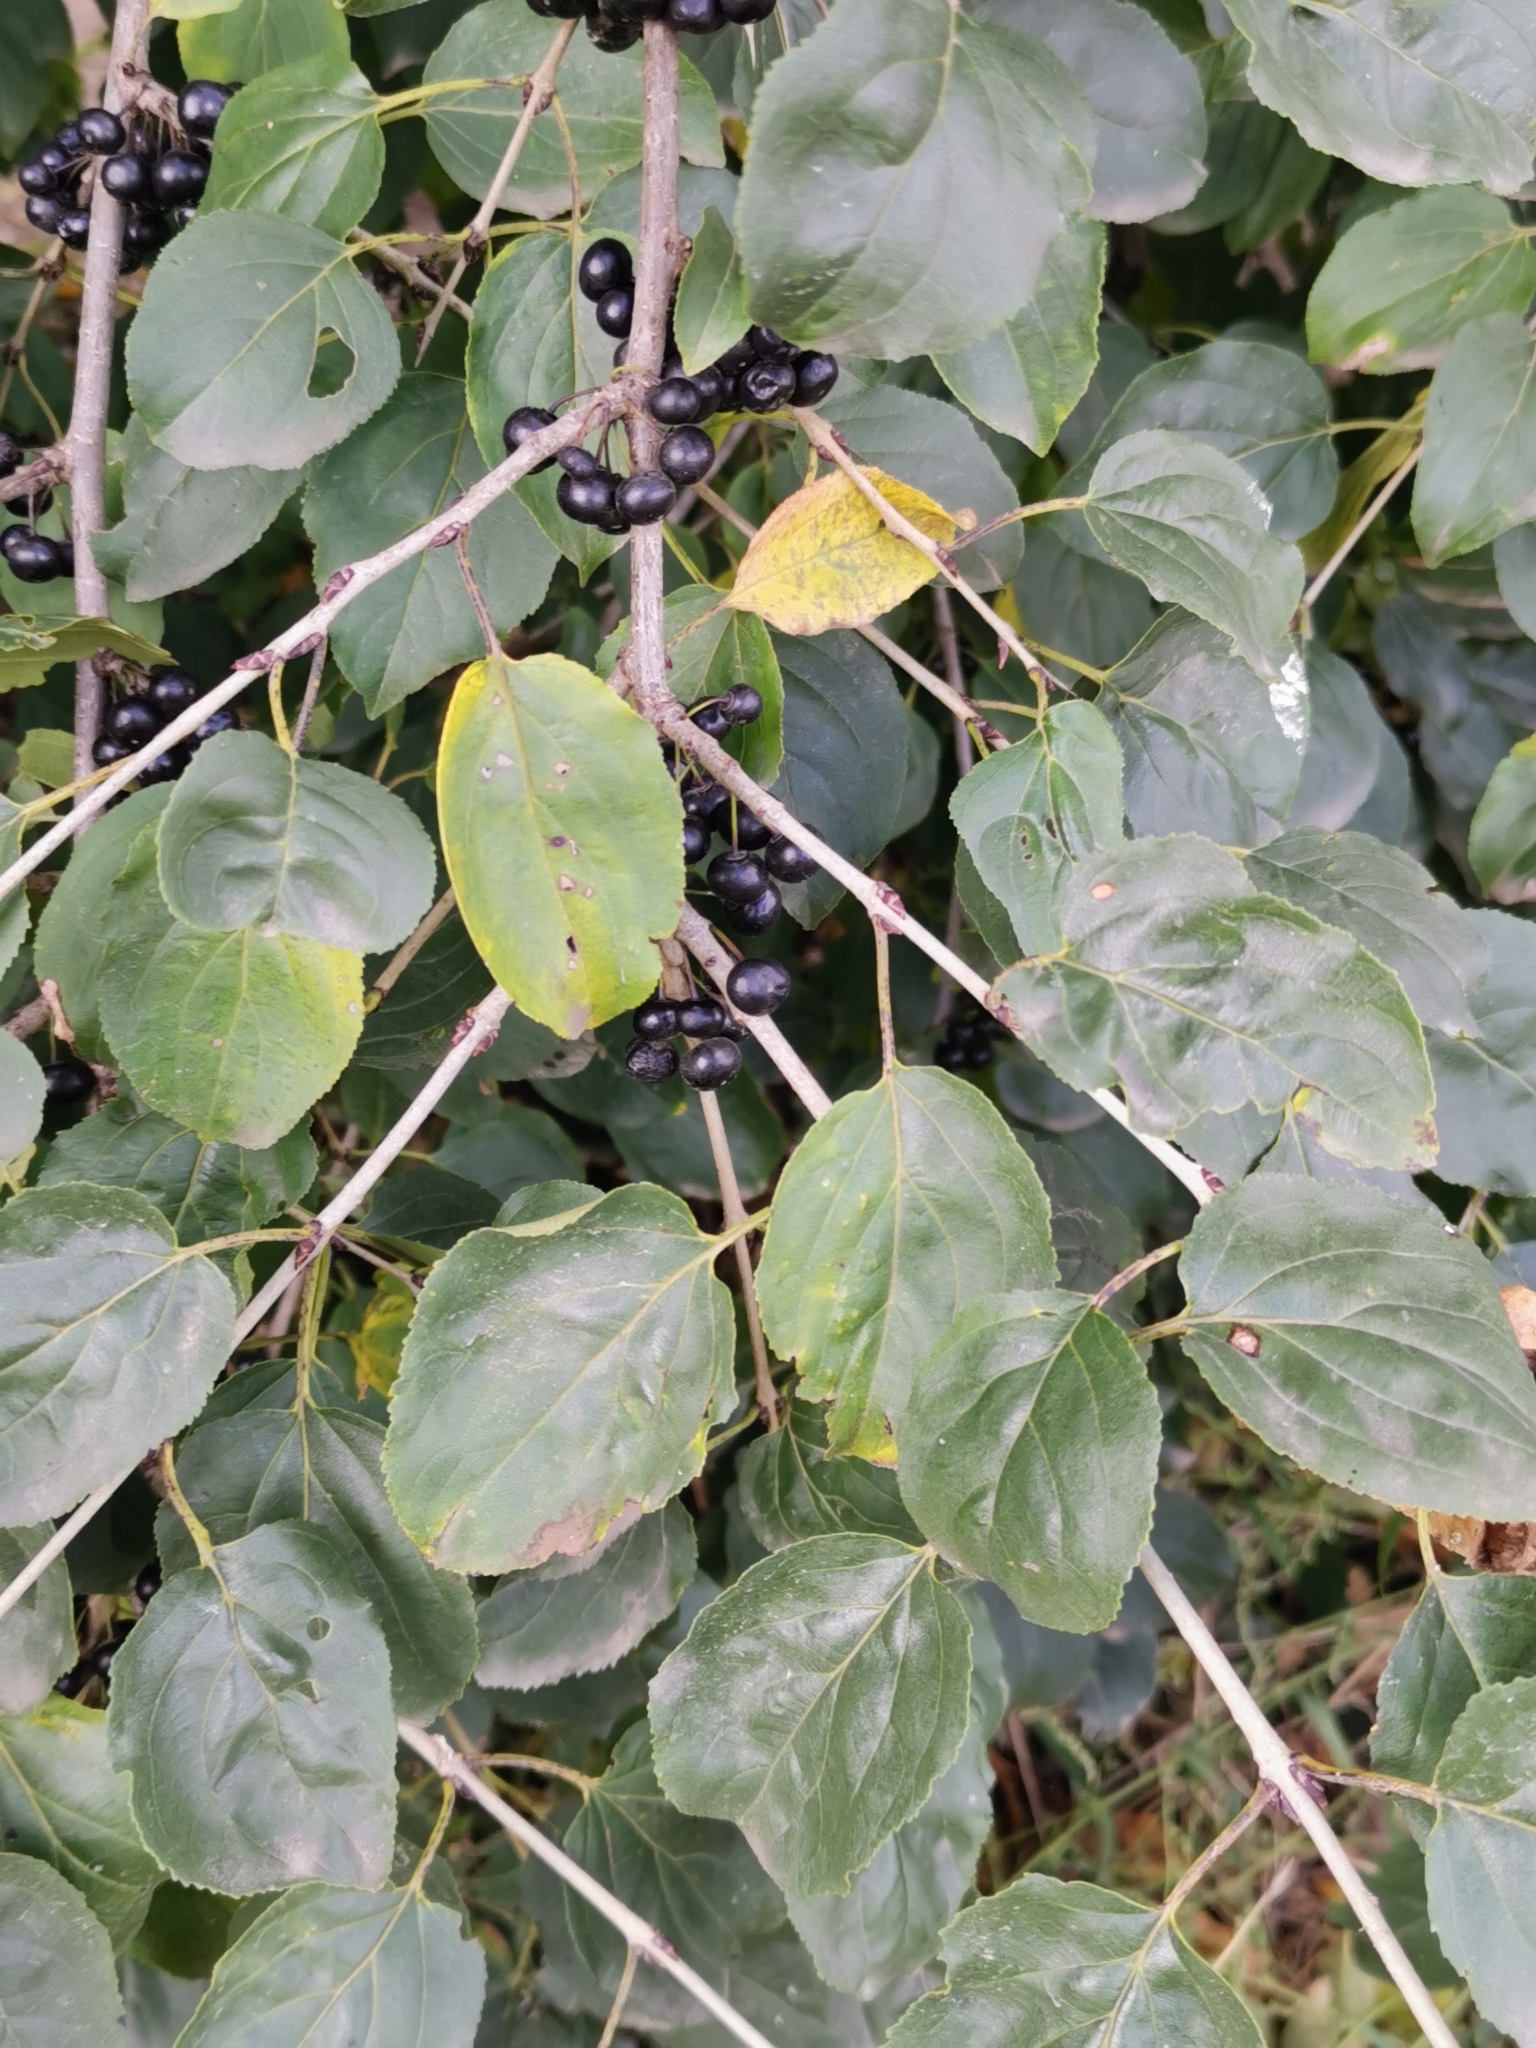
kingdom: Plantae
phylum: Tracheophyta
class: Magnoliopsida
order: Rosales
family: Rhamnaceae
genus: Rhamnus
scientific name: Rhamnus cathartica
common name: Common buckthorn
